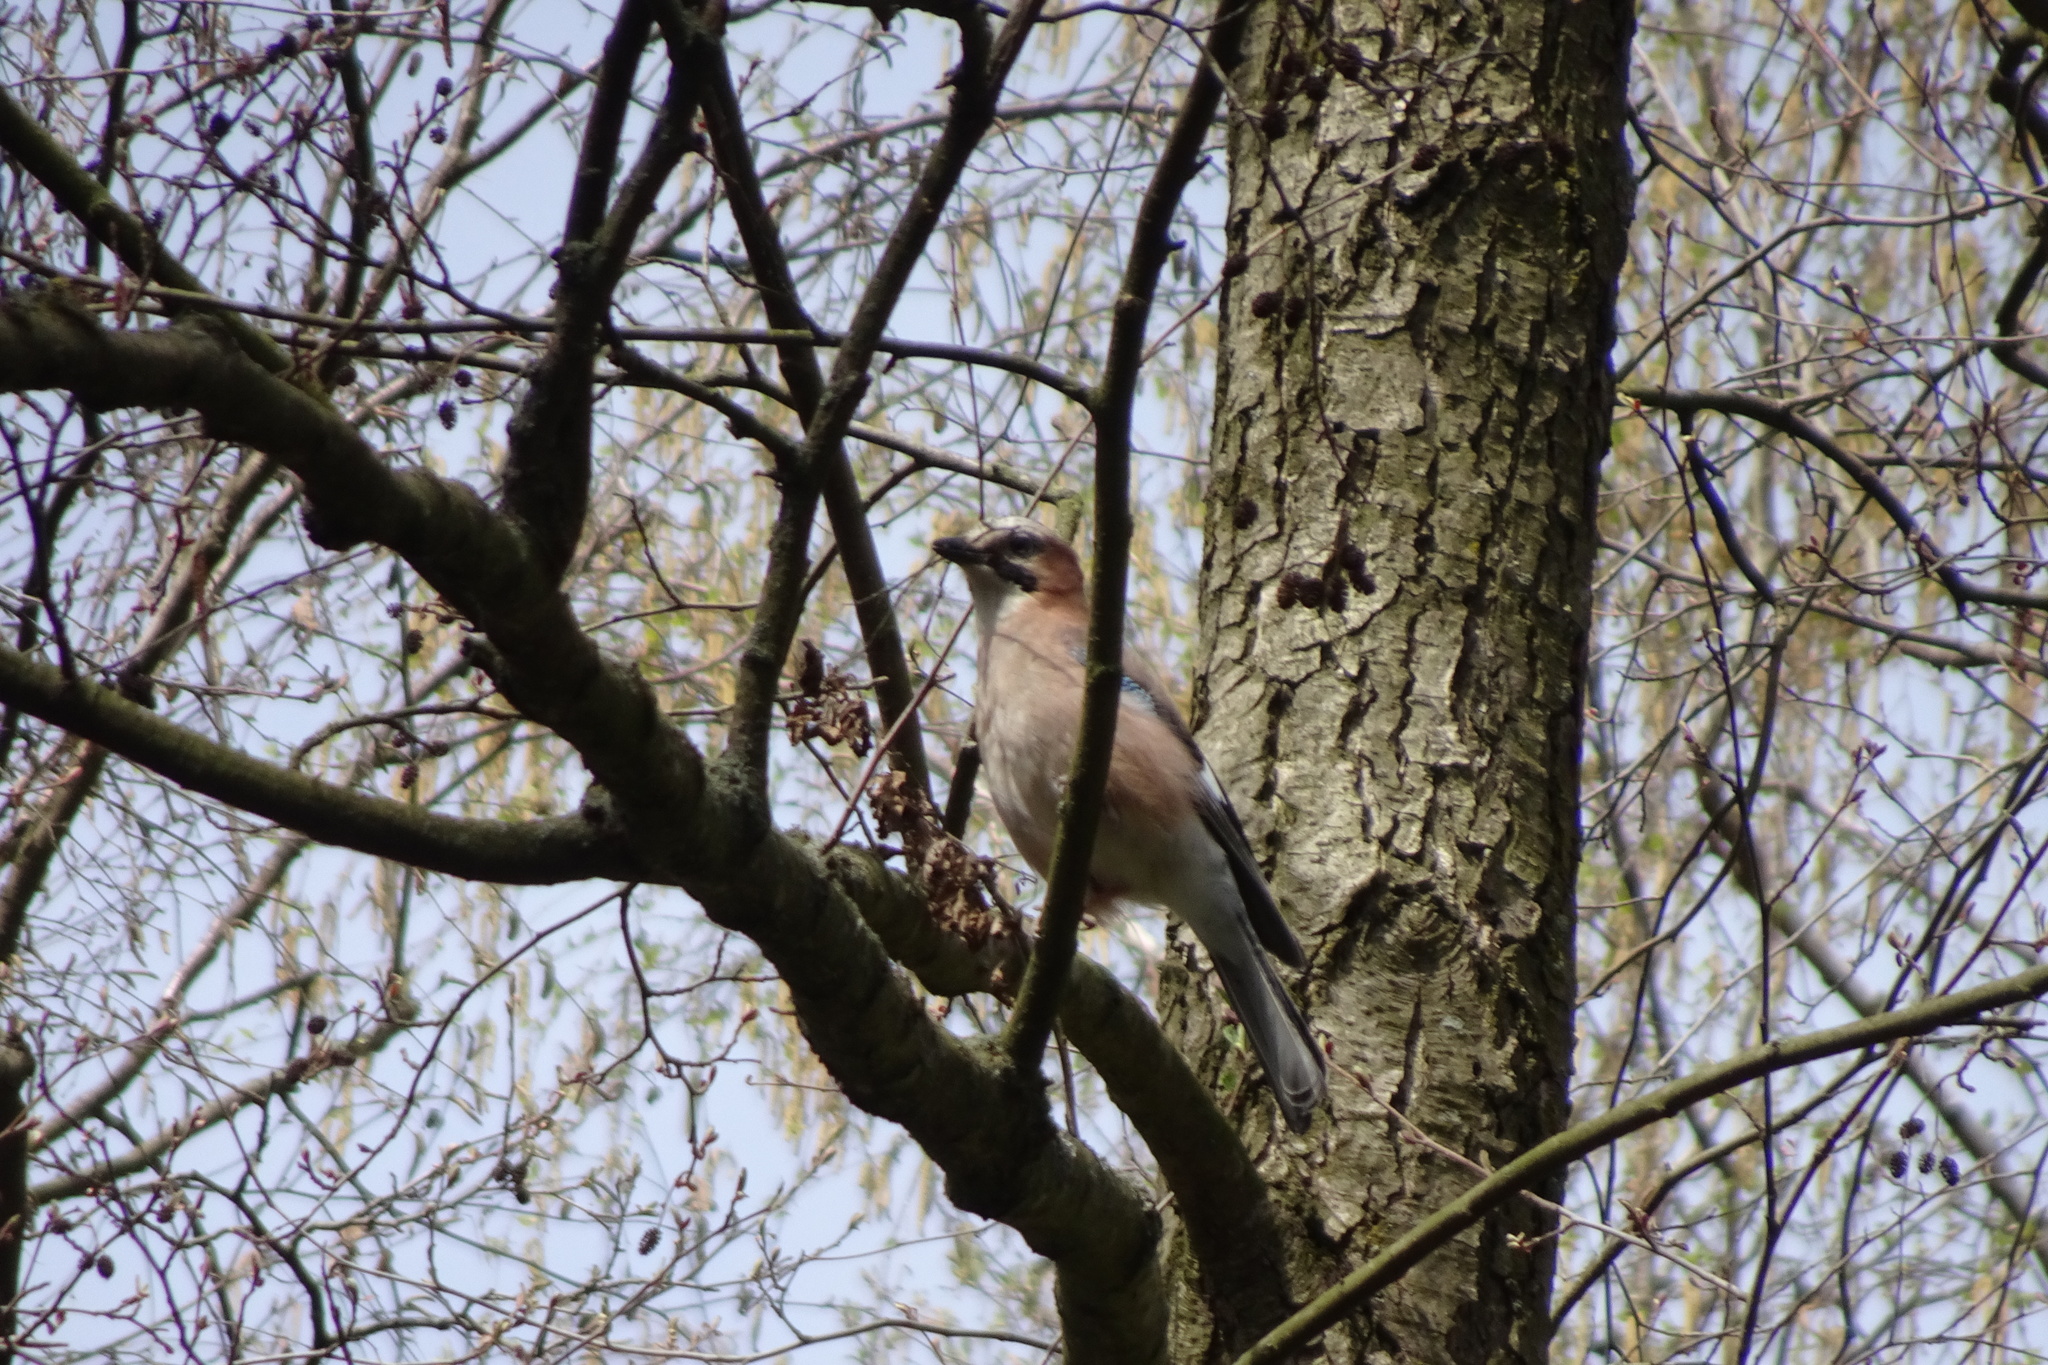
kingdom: Animalia
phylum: Chordata
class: Aves
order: Passeriformes
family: Corvidae
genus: Garrulus
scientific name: Garrulus glandarius
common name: Eurasian jay
